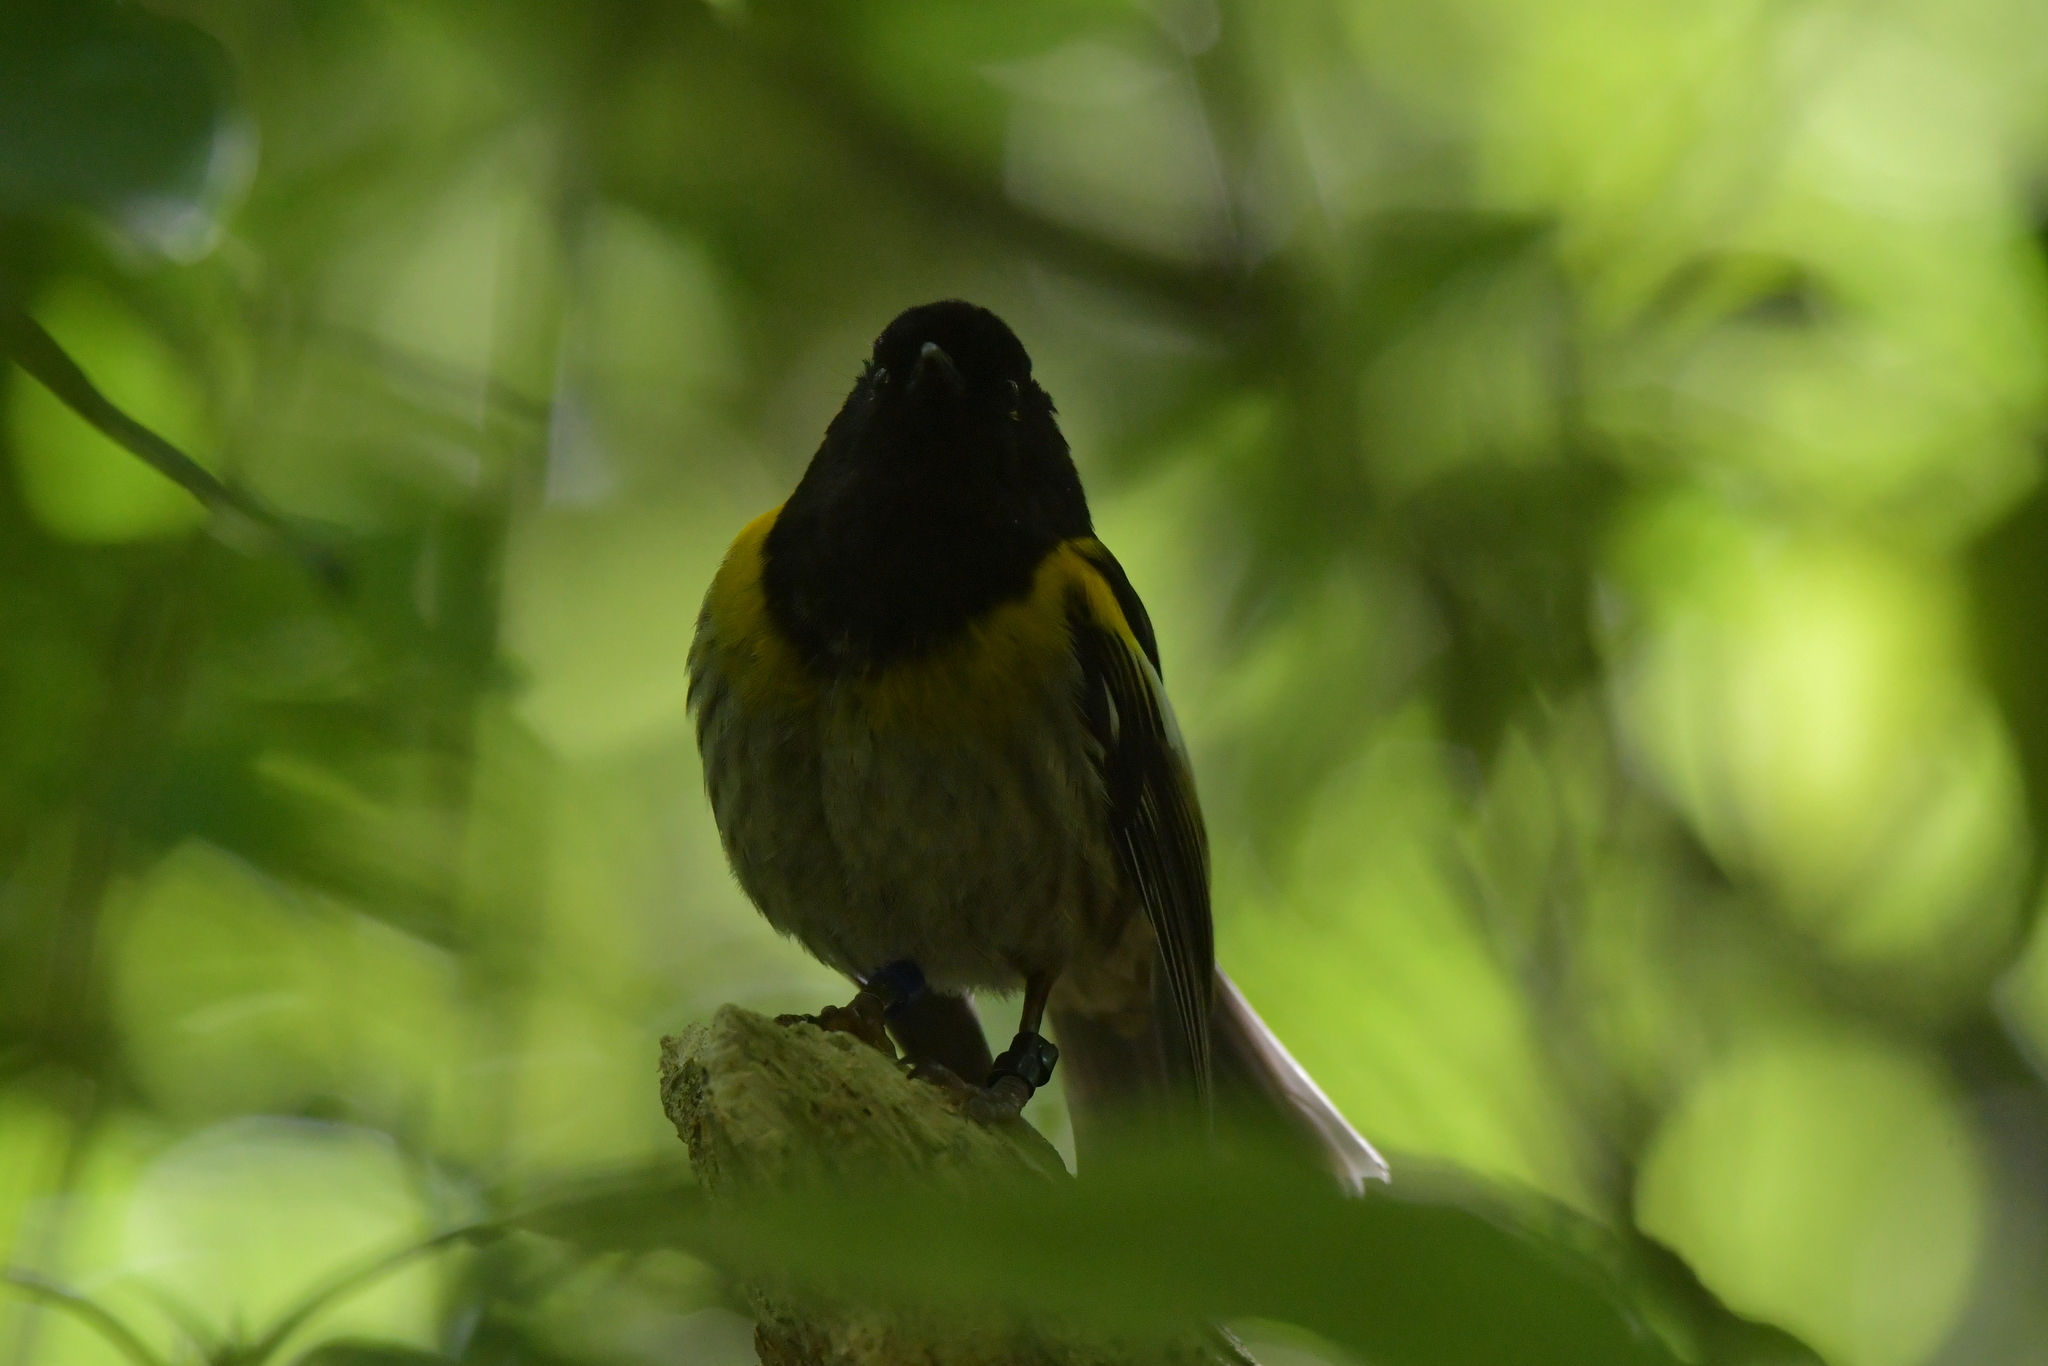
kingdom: Animalia
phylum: Chordata
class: Aves
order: Passeriformes
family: Notiomystidae
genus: Notiomystis
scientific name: Notiomystis cincta
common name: Stitchbird
